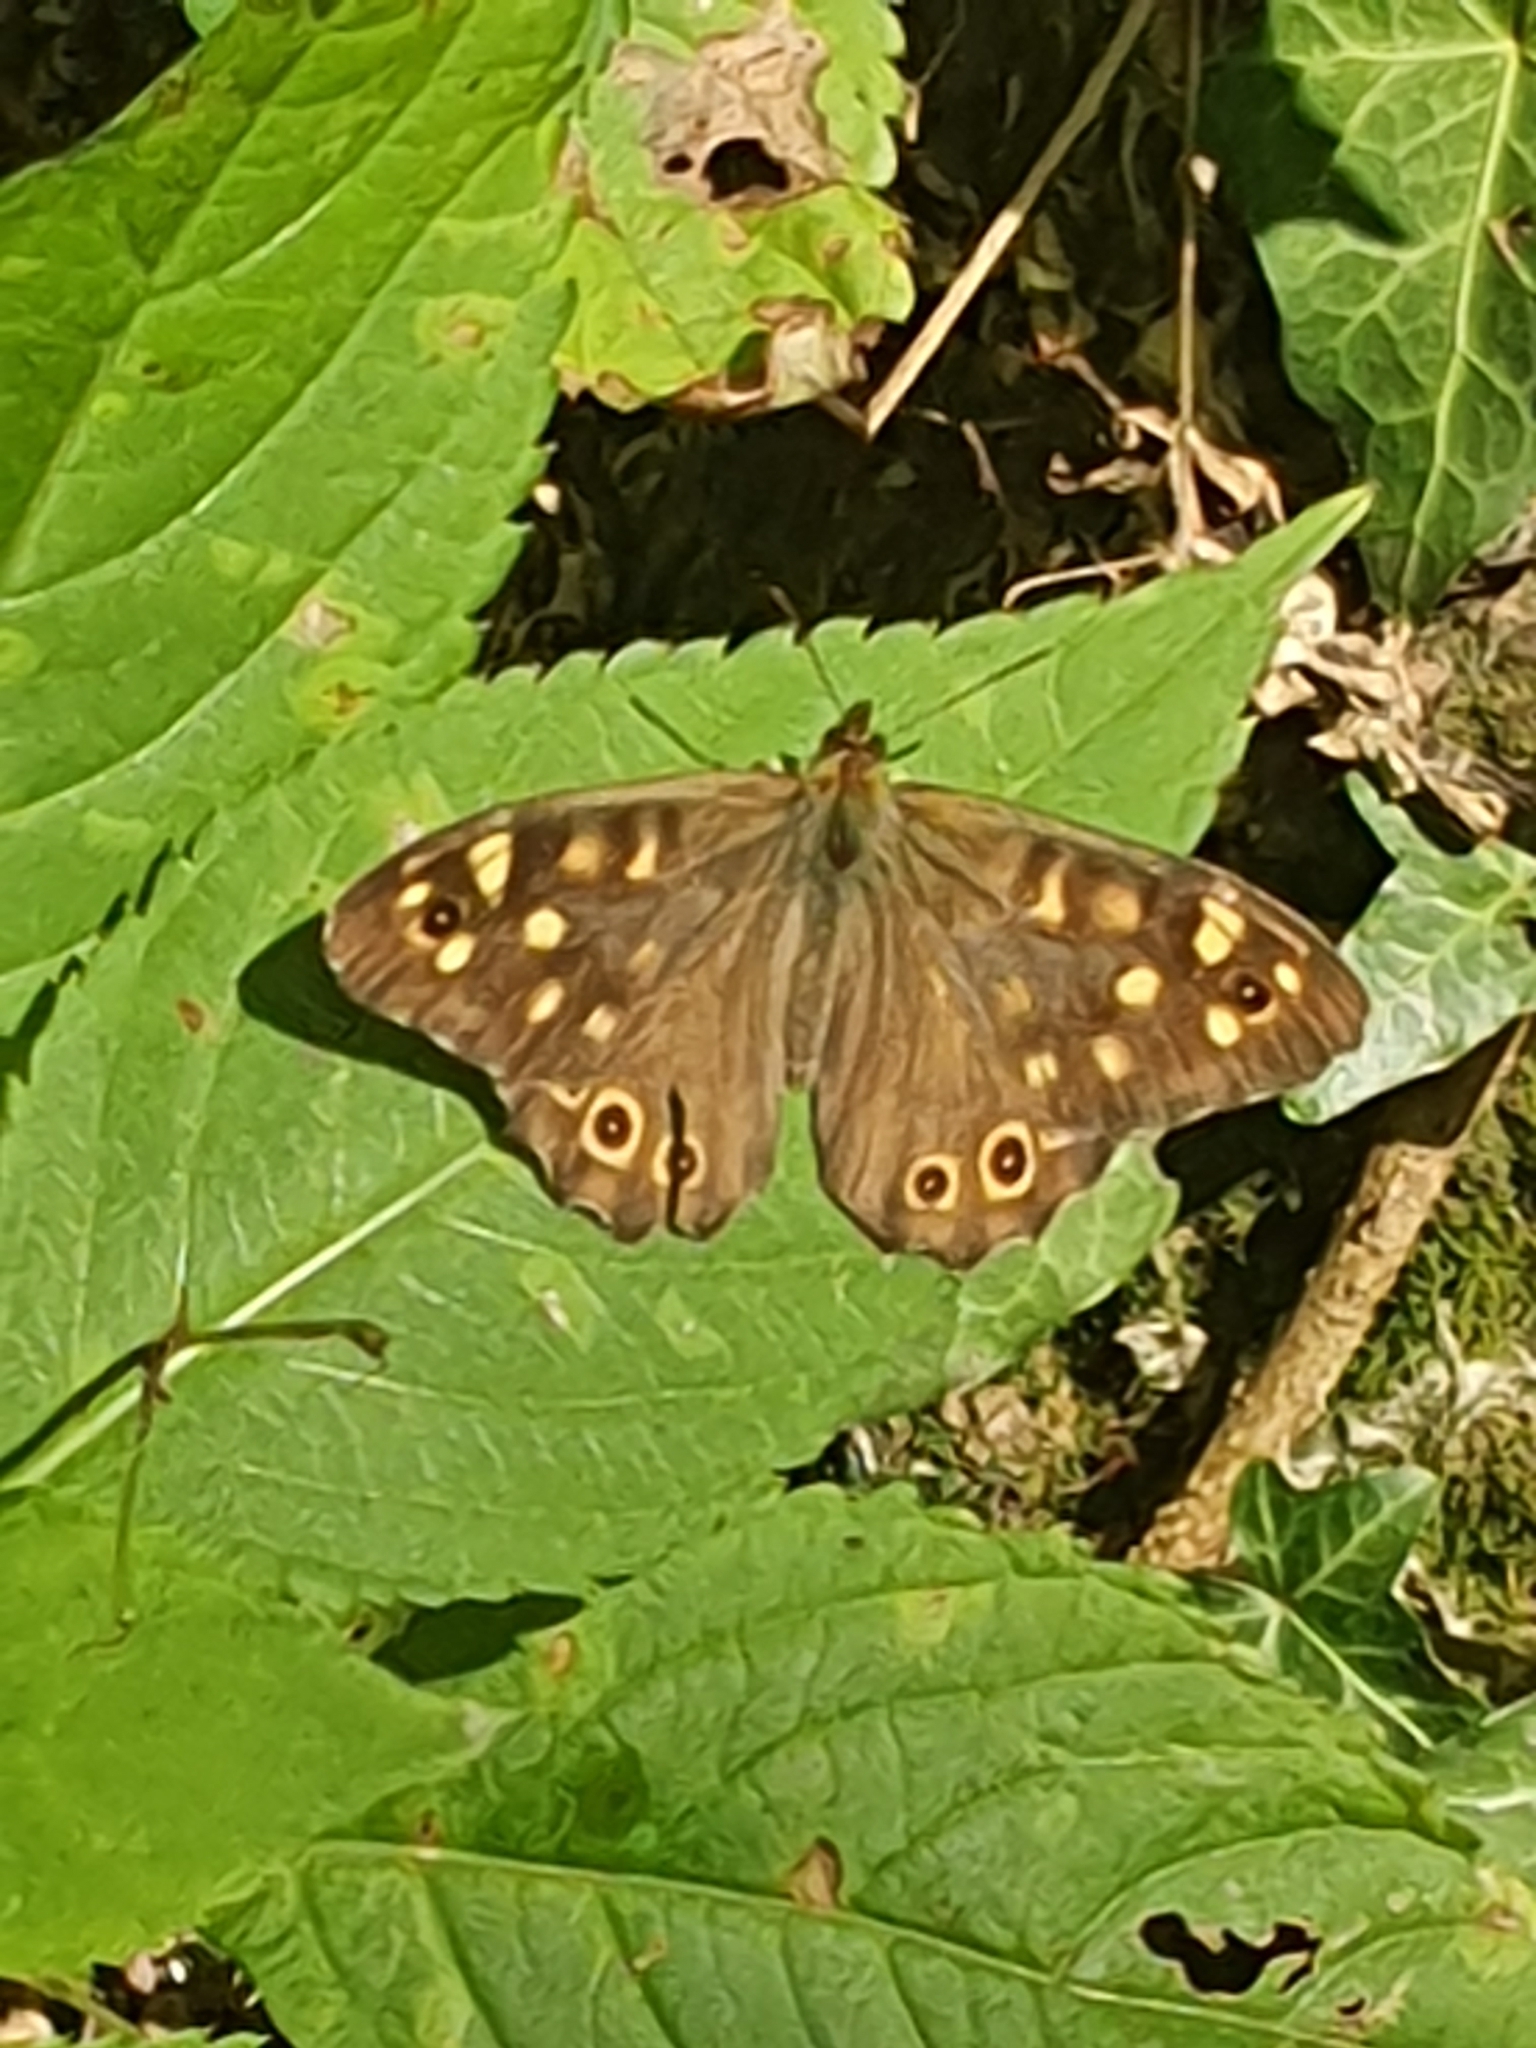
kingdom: Animalia
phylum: Arthropoda
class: Insecta
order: Lepidoptera
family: Nymphalidae
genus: Pararge
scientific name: Pararge aegeria
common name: Speckled wood
